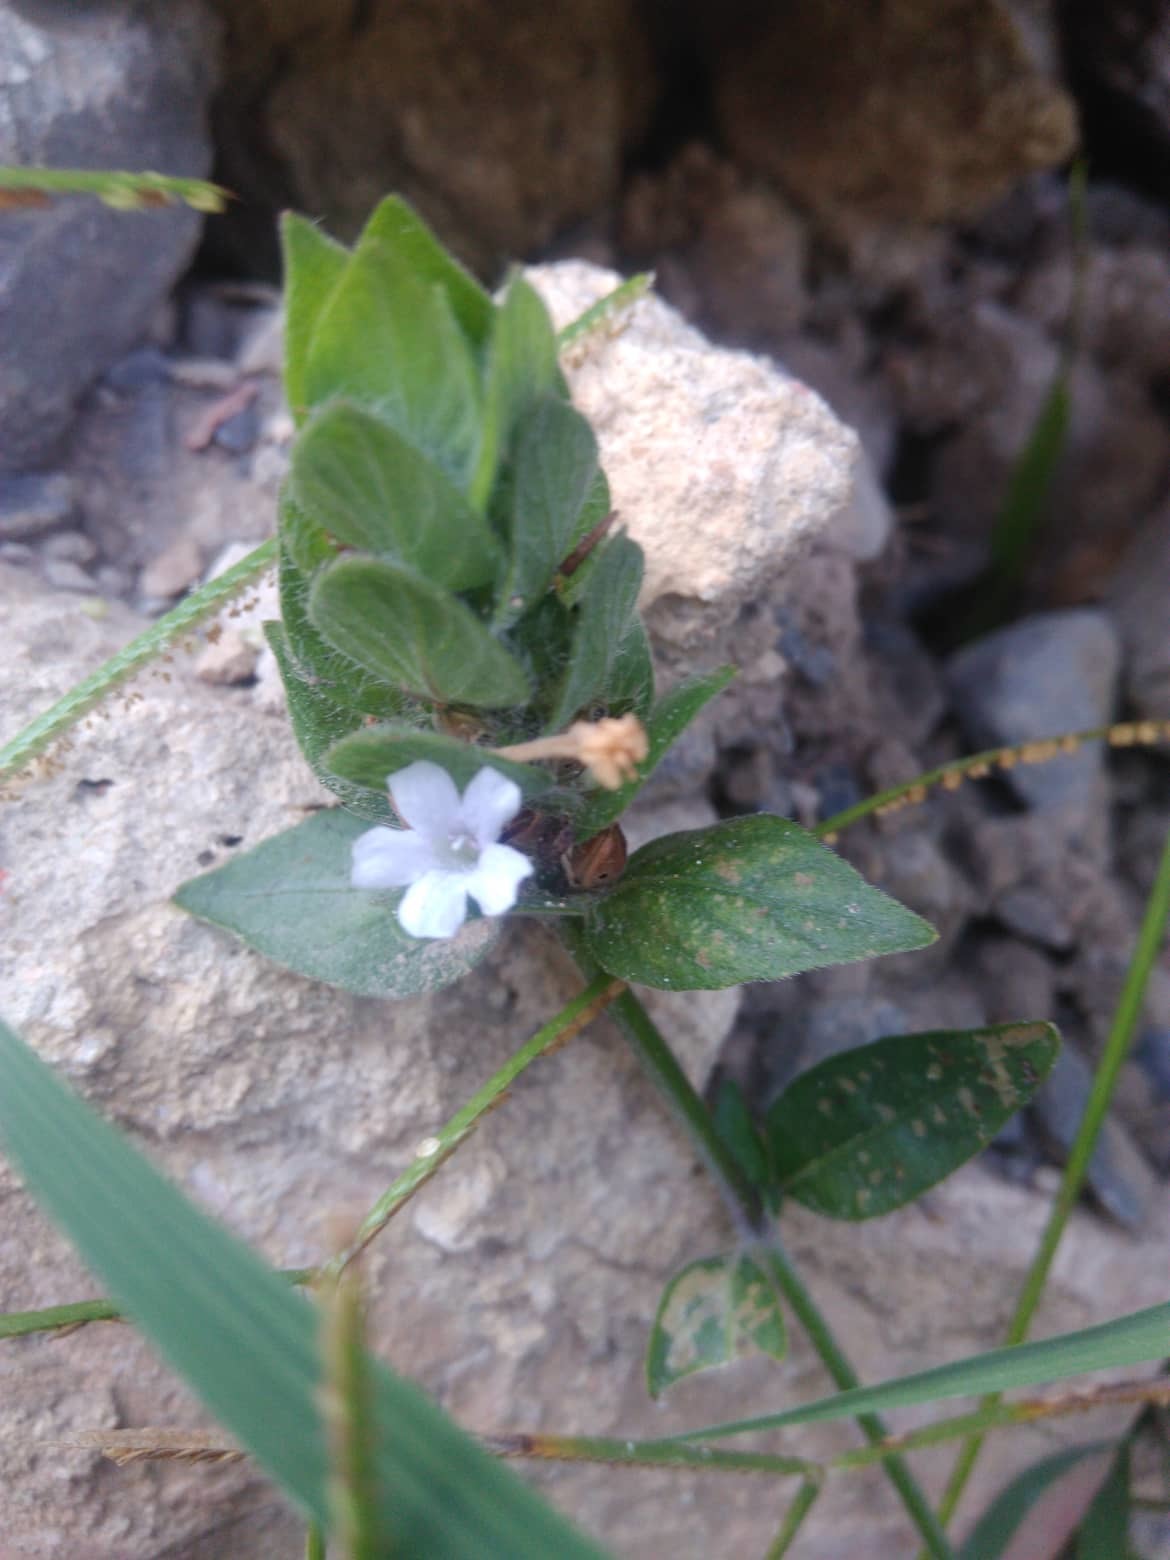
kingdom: Plantae
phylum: Tracheophyta
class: Magnoliopsida
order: Lamiales
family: Acanthaceae
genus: Ruellia
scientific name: Ruellia blechum
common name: Browne's blechum
